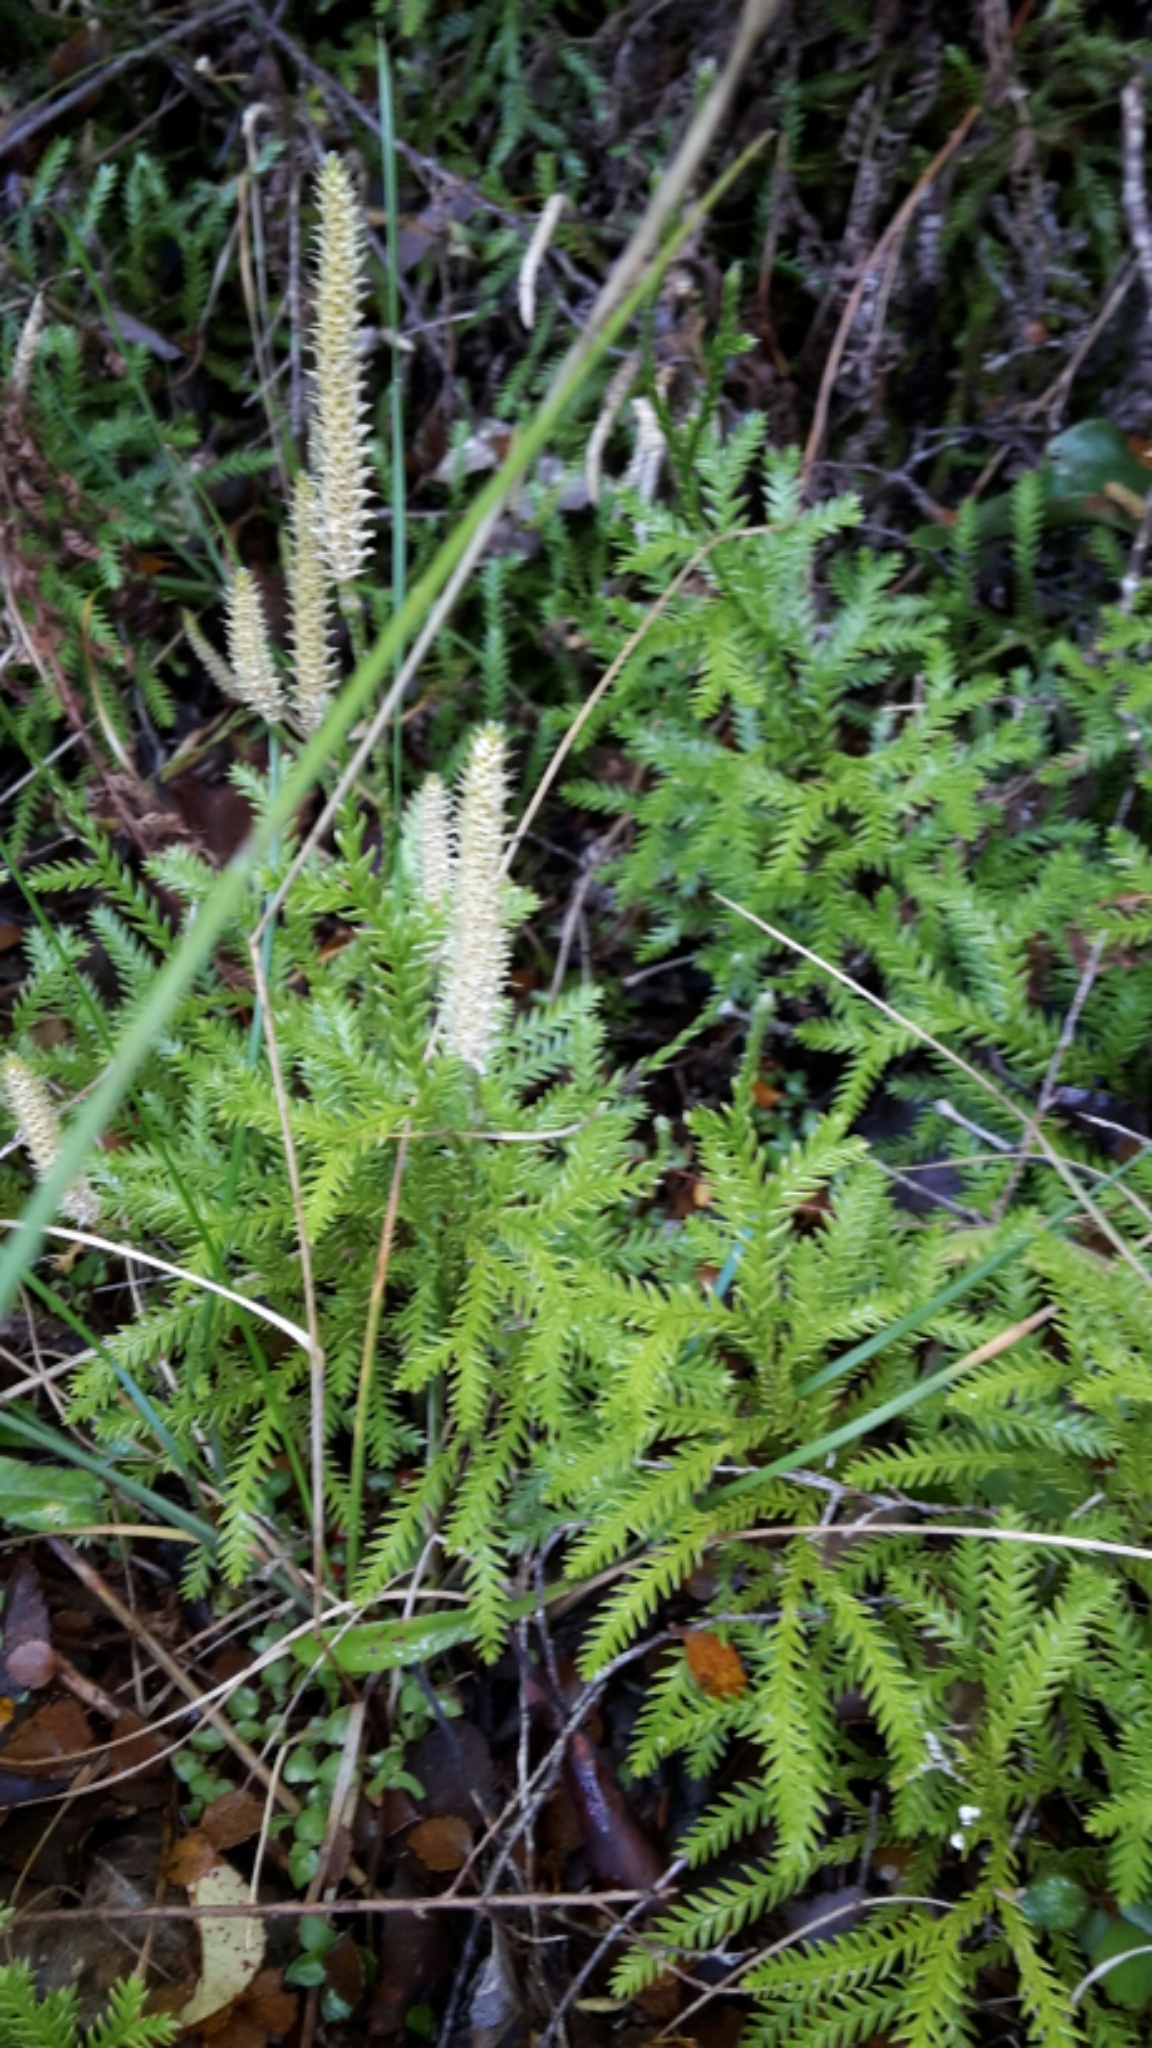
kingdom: Plantae
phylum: Tracheophyta
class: Lycopodiopsida
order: Lycopodiales
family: Lycopodiaceae
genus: Diphasium
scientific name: Diphasium scariosum
